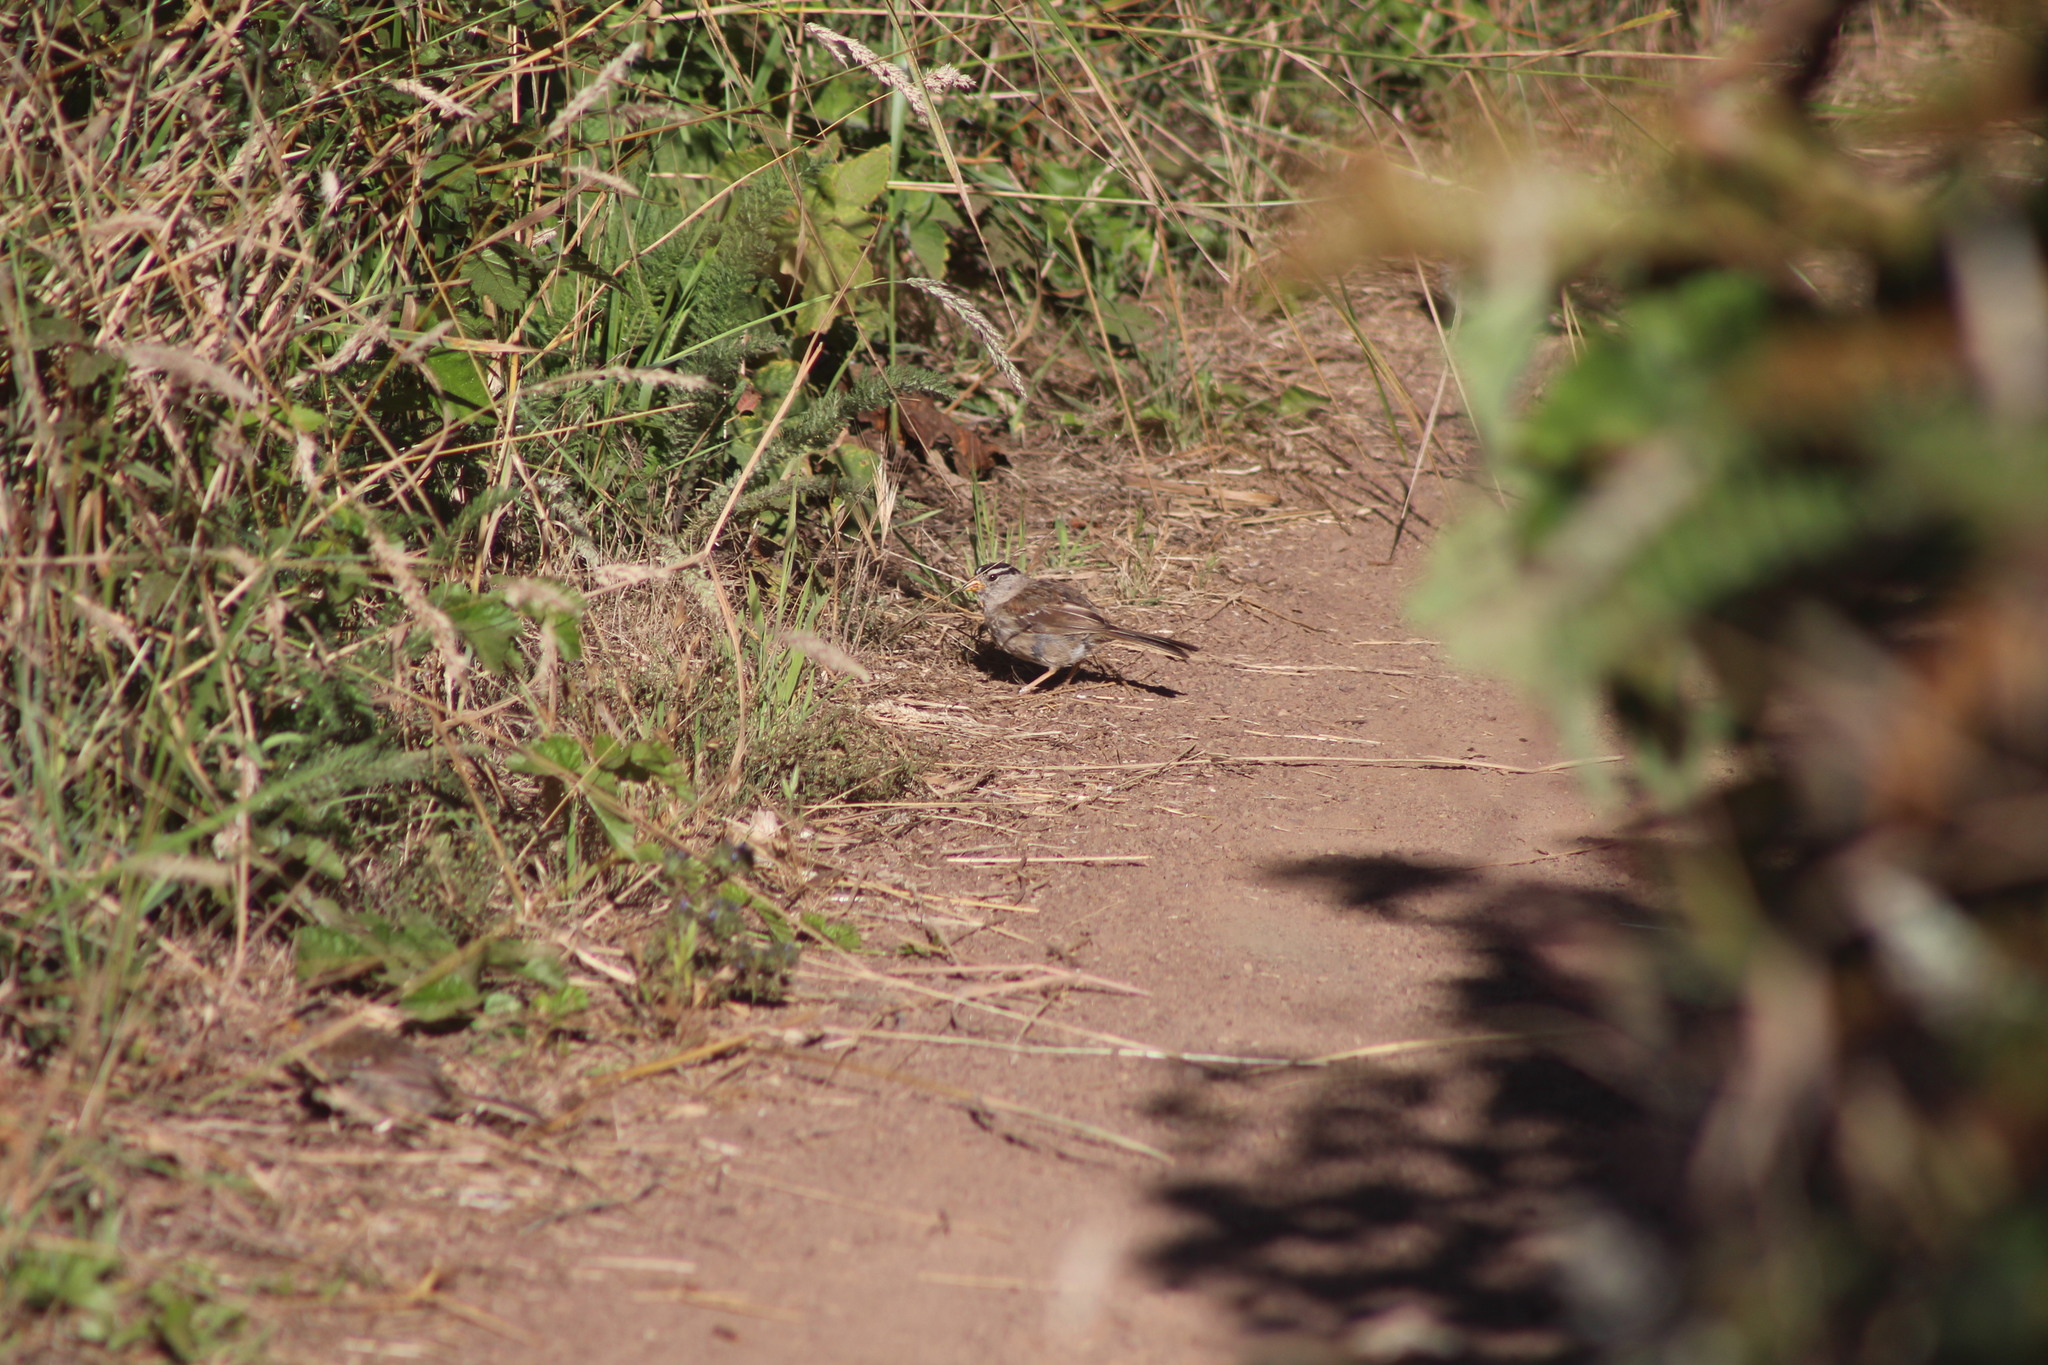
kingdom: Animalia
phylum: Chordata
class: Aves
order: Passeriformes
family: Passerellidae
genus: Zonotrichia
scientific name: Zonotrichia leucophrys
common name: White-crowned sparrow
